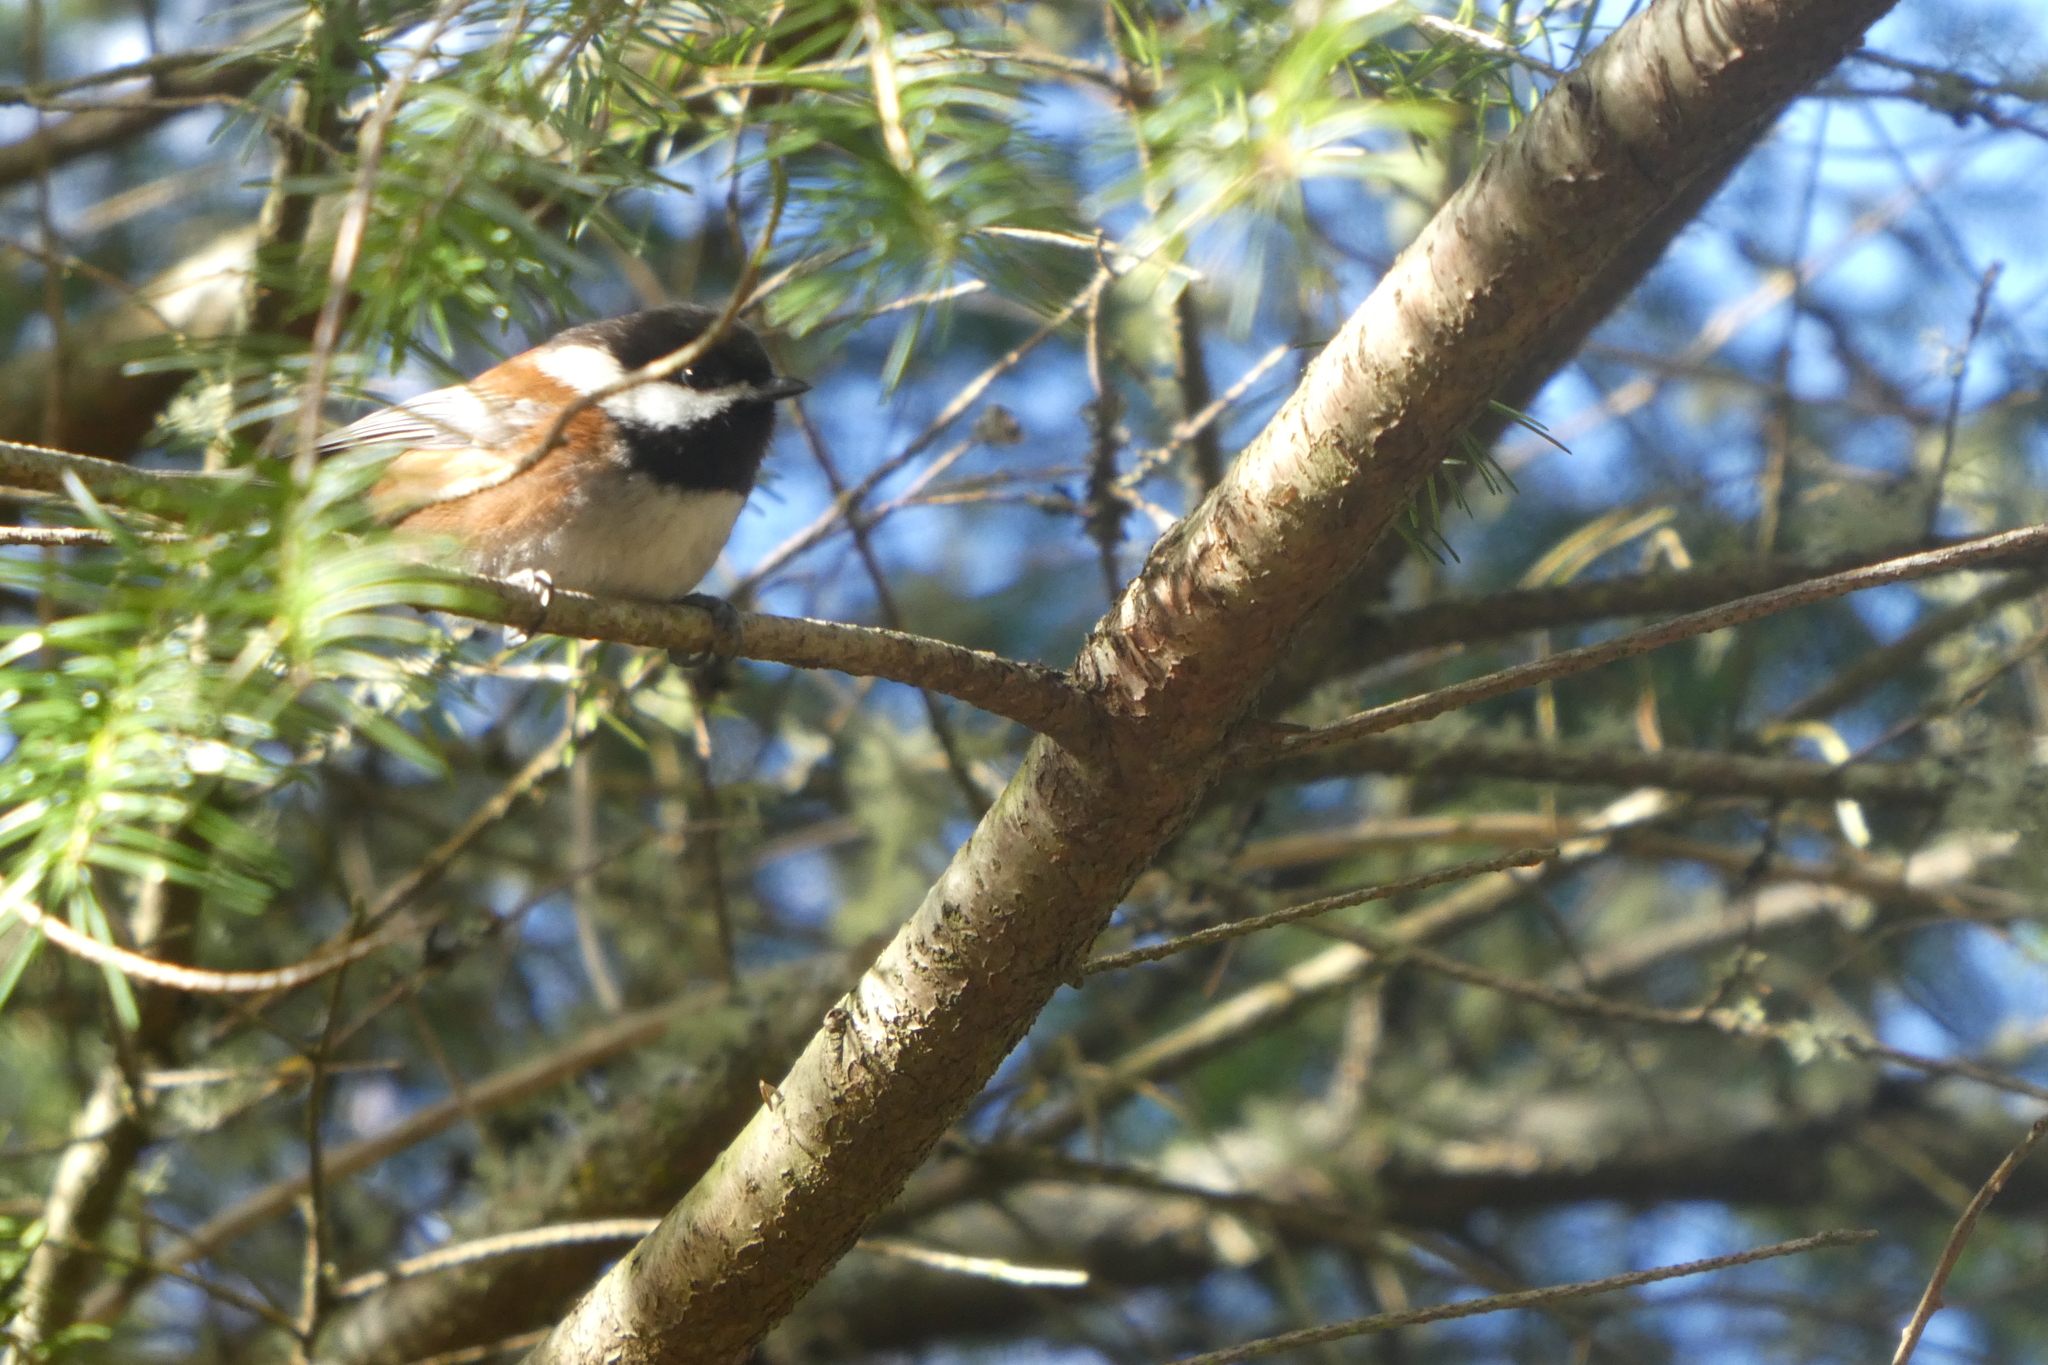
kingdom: Animalia
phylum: Chordata
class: Aves
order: Passeriformes
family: Paridae
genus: Poecile
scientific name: Poecile rufescens
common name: Chestnut-backed chickadee
